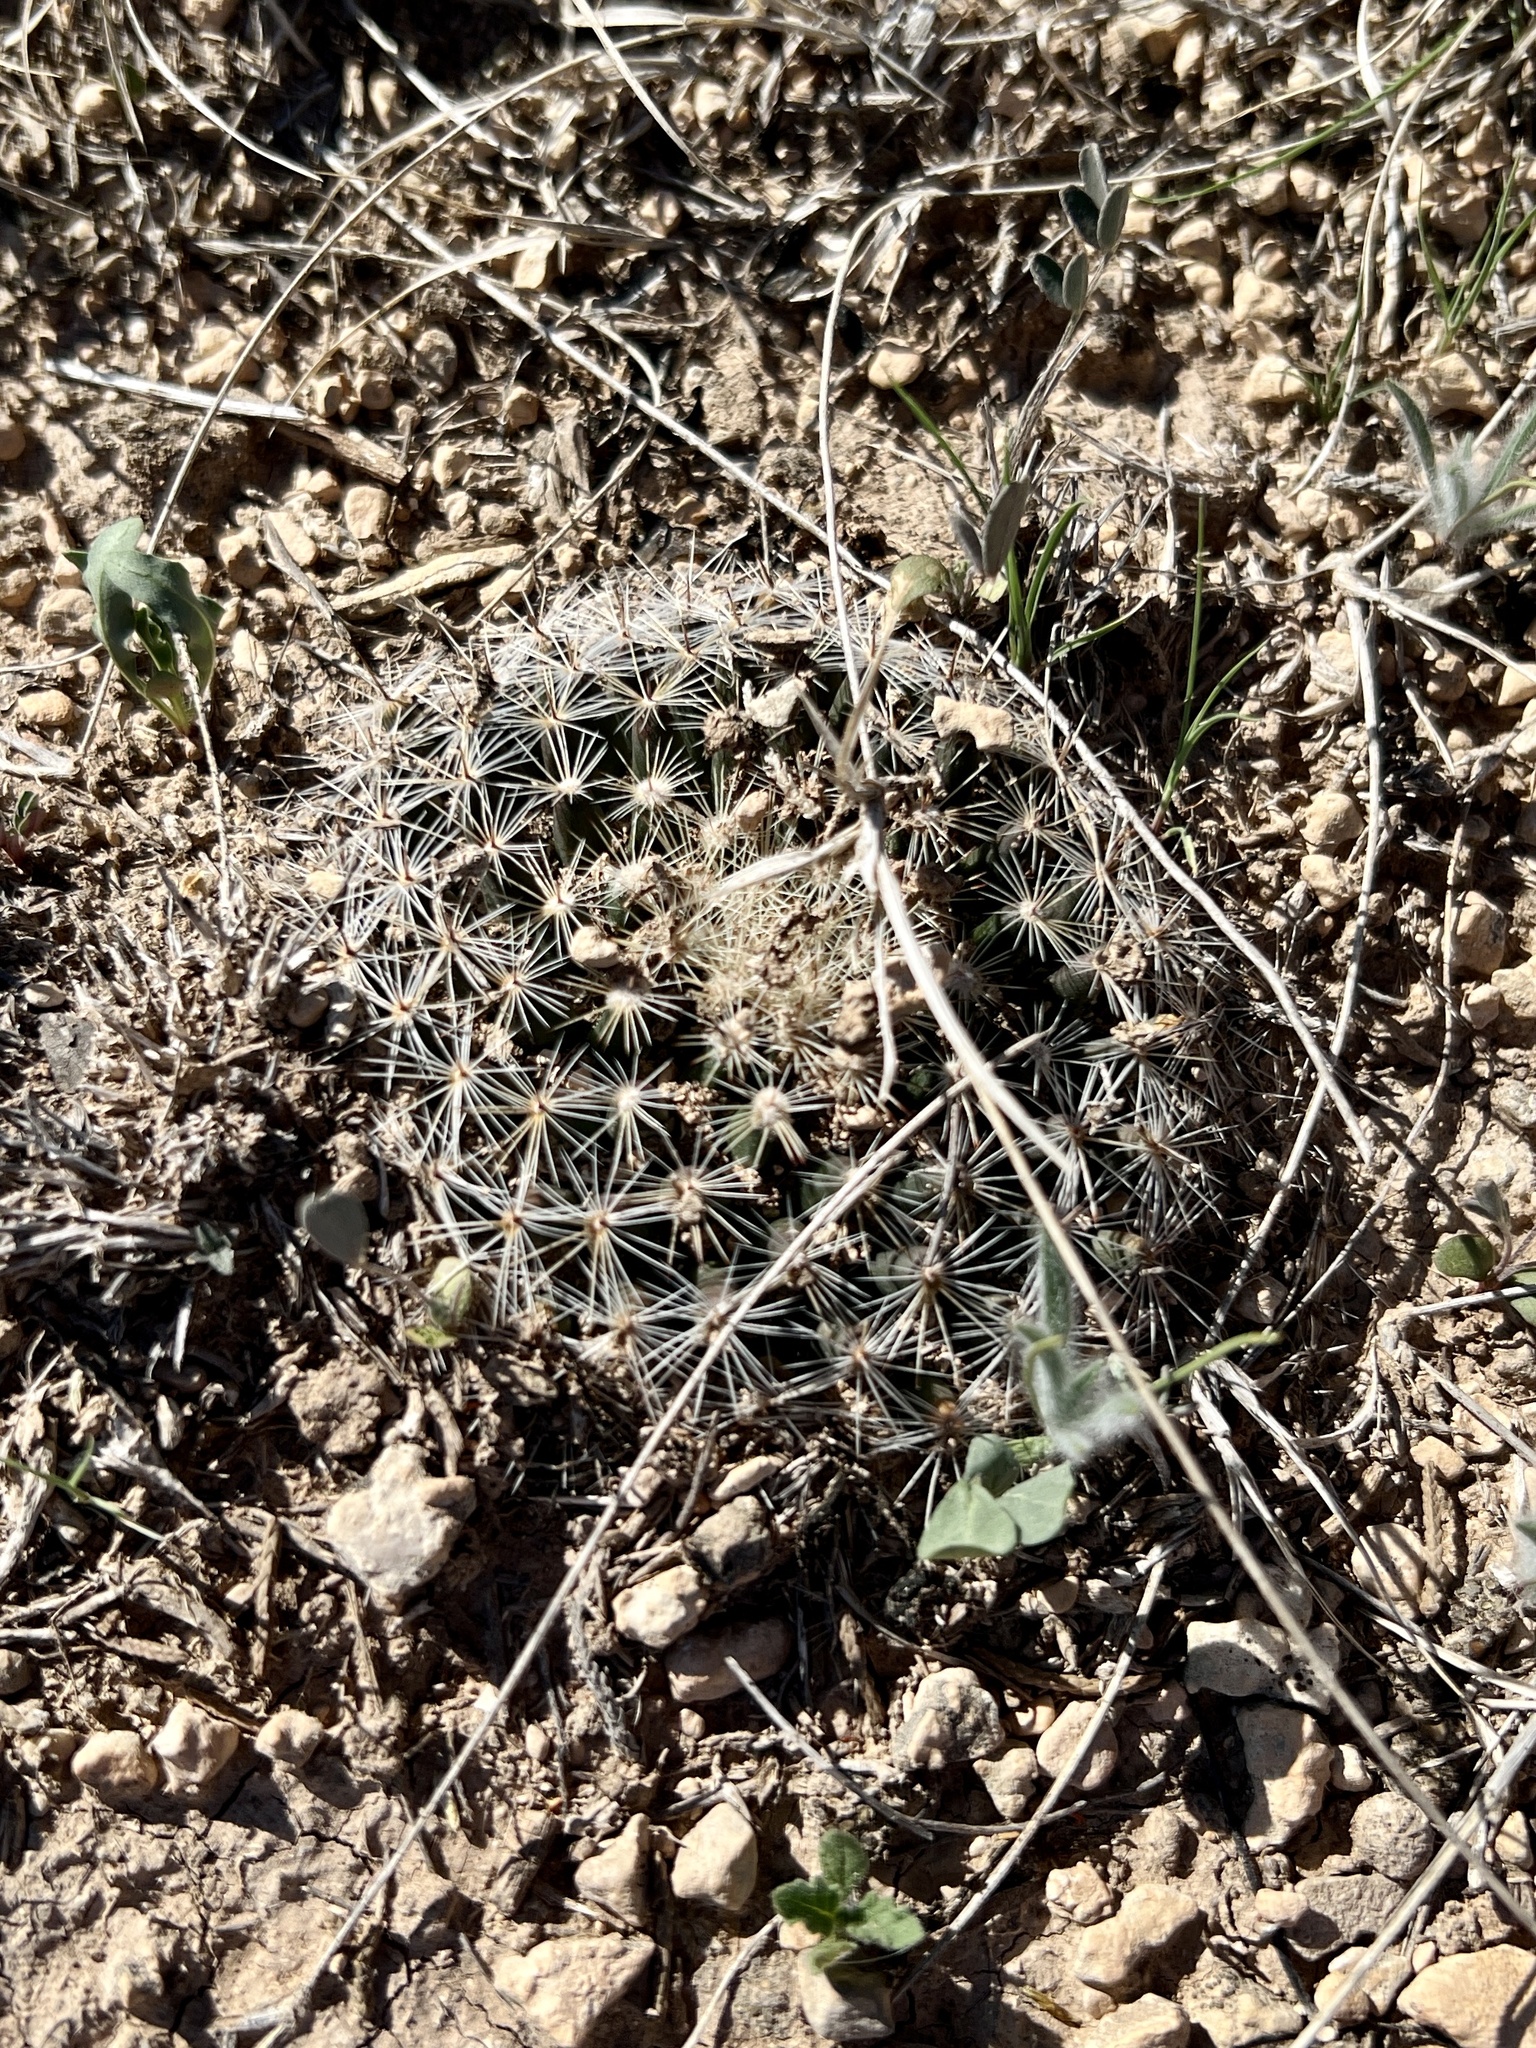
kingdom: Plantae
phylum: Tracheophyta
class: Magnoliopsida
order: Caryophyllales
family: Cactaceae
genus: Mammillaria
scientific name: Mammillaria heyderi
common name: Little nipple cactus
